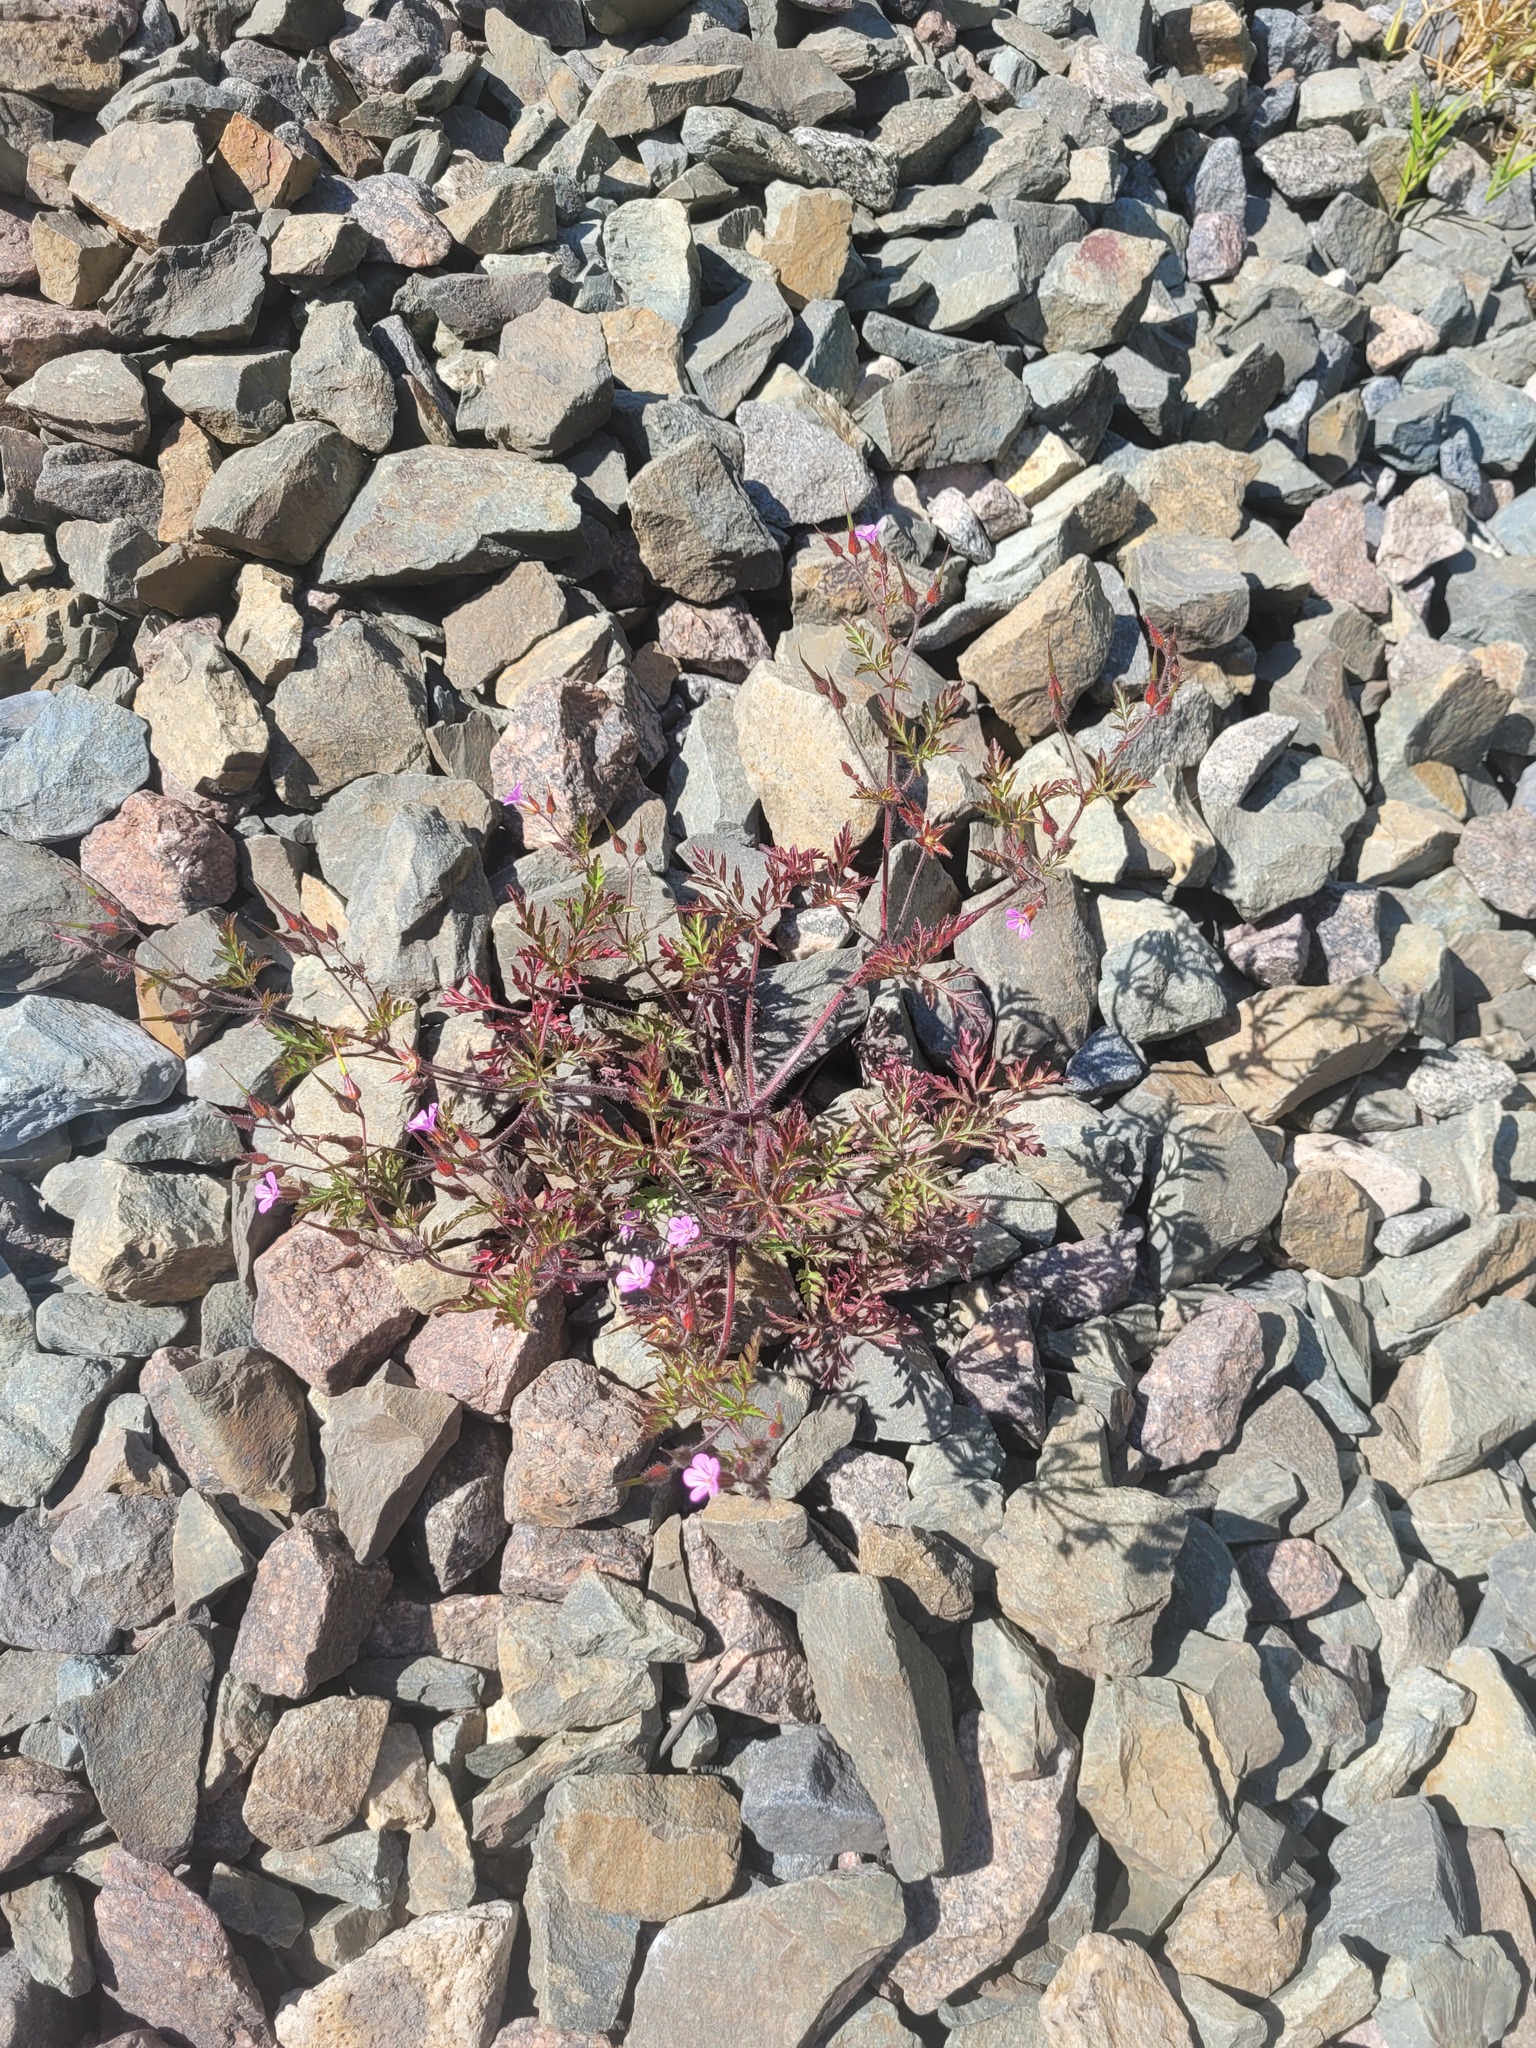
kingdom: Plantae
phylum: Tracheophyta
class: Magnoliopsida
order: Geraniales
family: Geraniaceae
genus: Geranium
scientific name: Geranium robertianum
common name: Herb-robert
